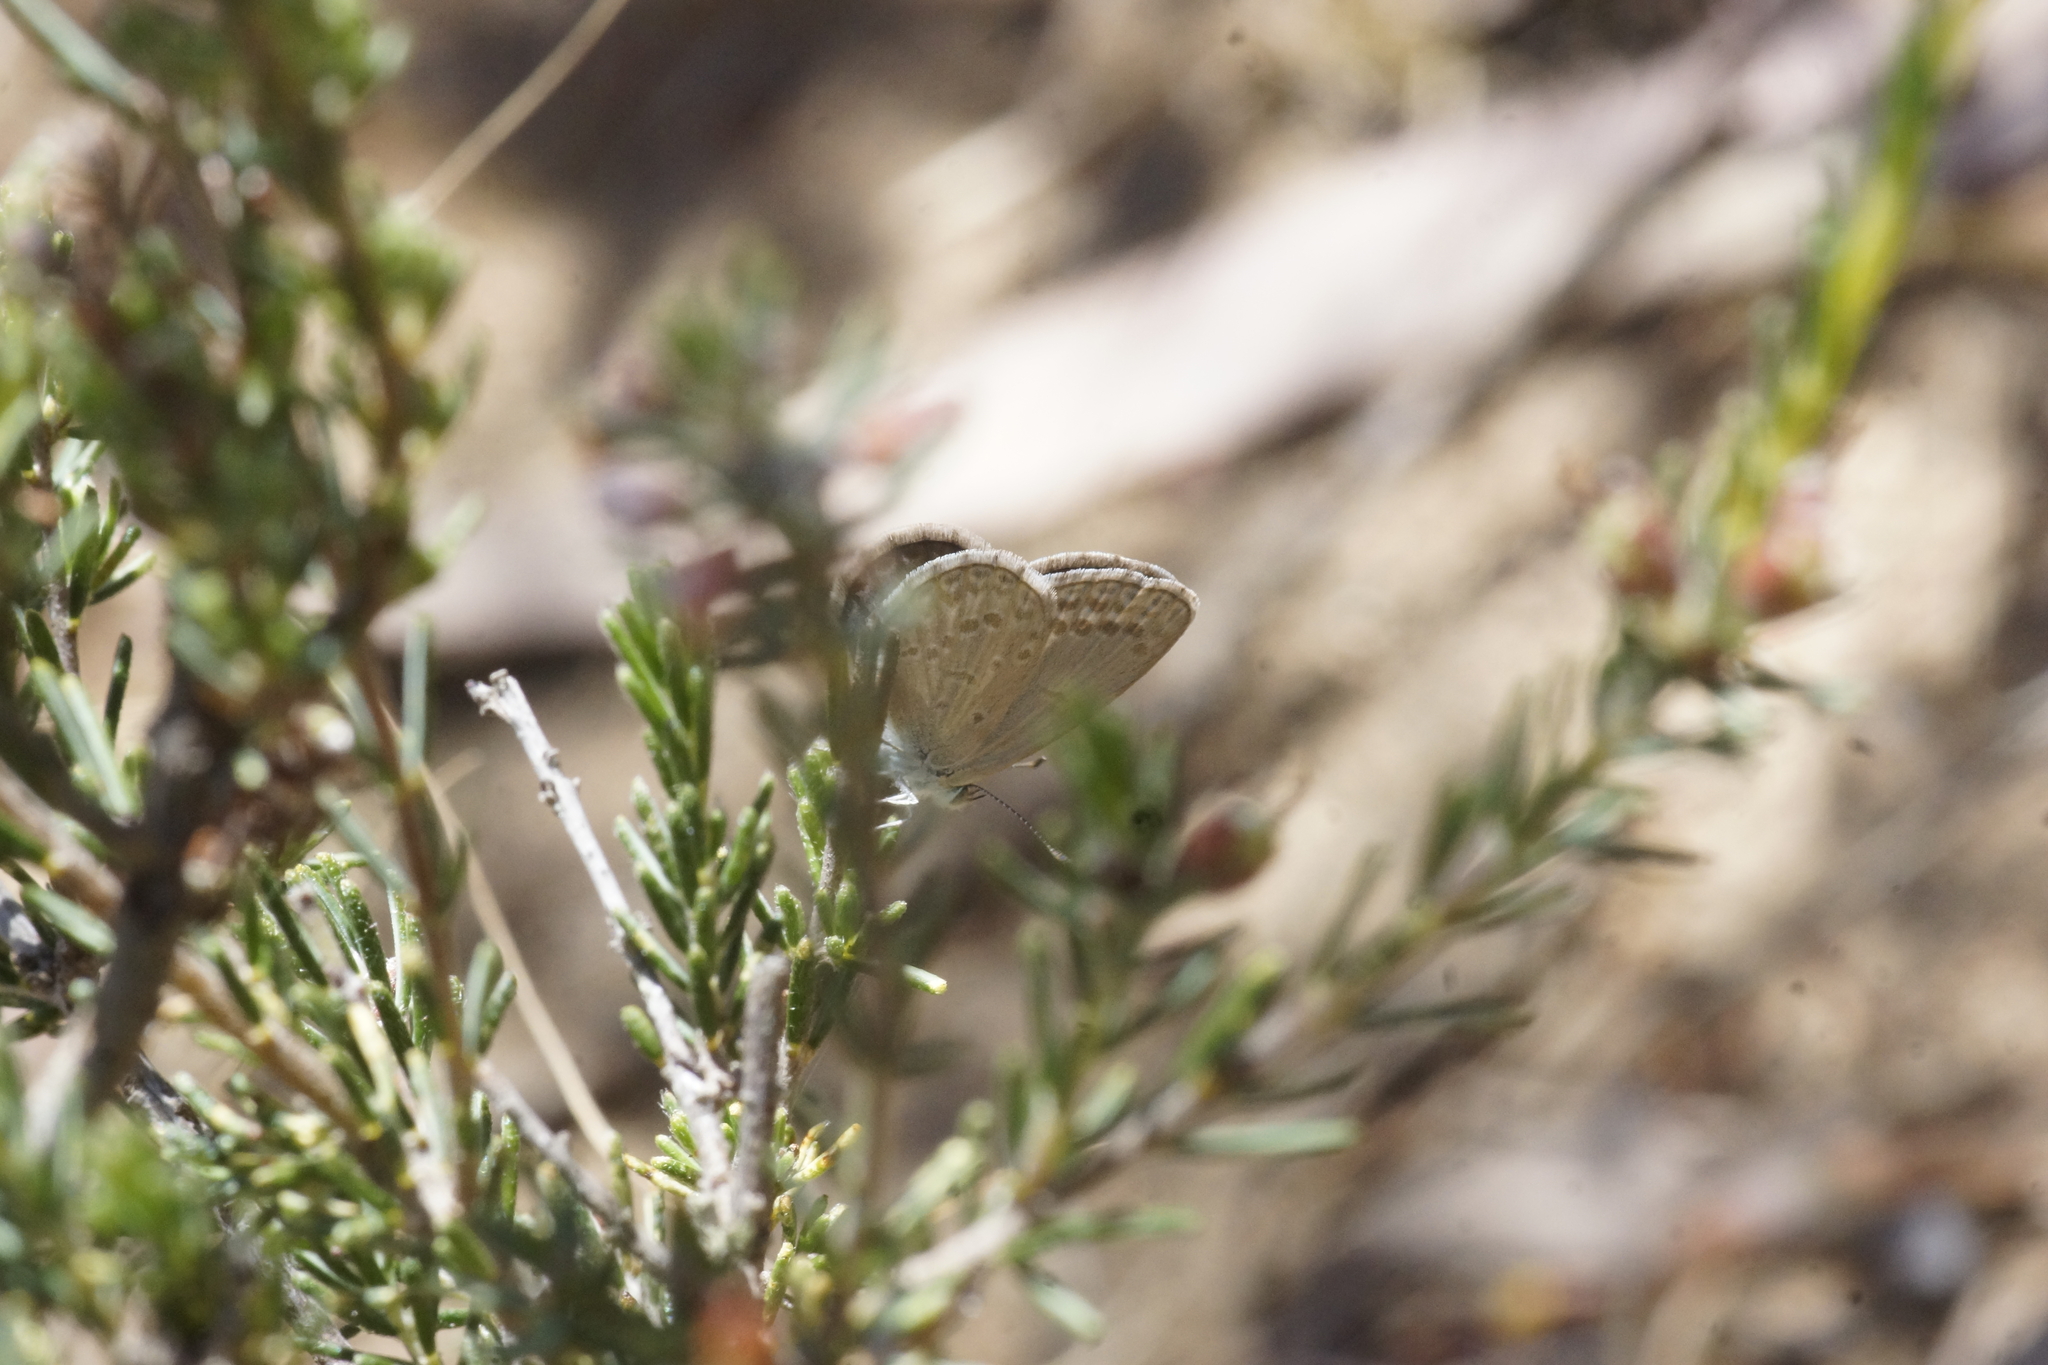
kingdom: Animalia
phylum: Arthropoda
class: Insecta
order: Lepidoptera
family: Lycaenidae
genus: Zizina
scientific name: Zizina otis
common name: Lesser grass blue
